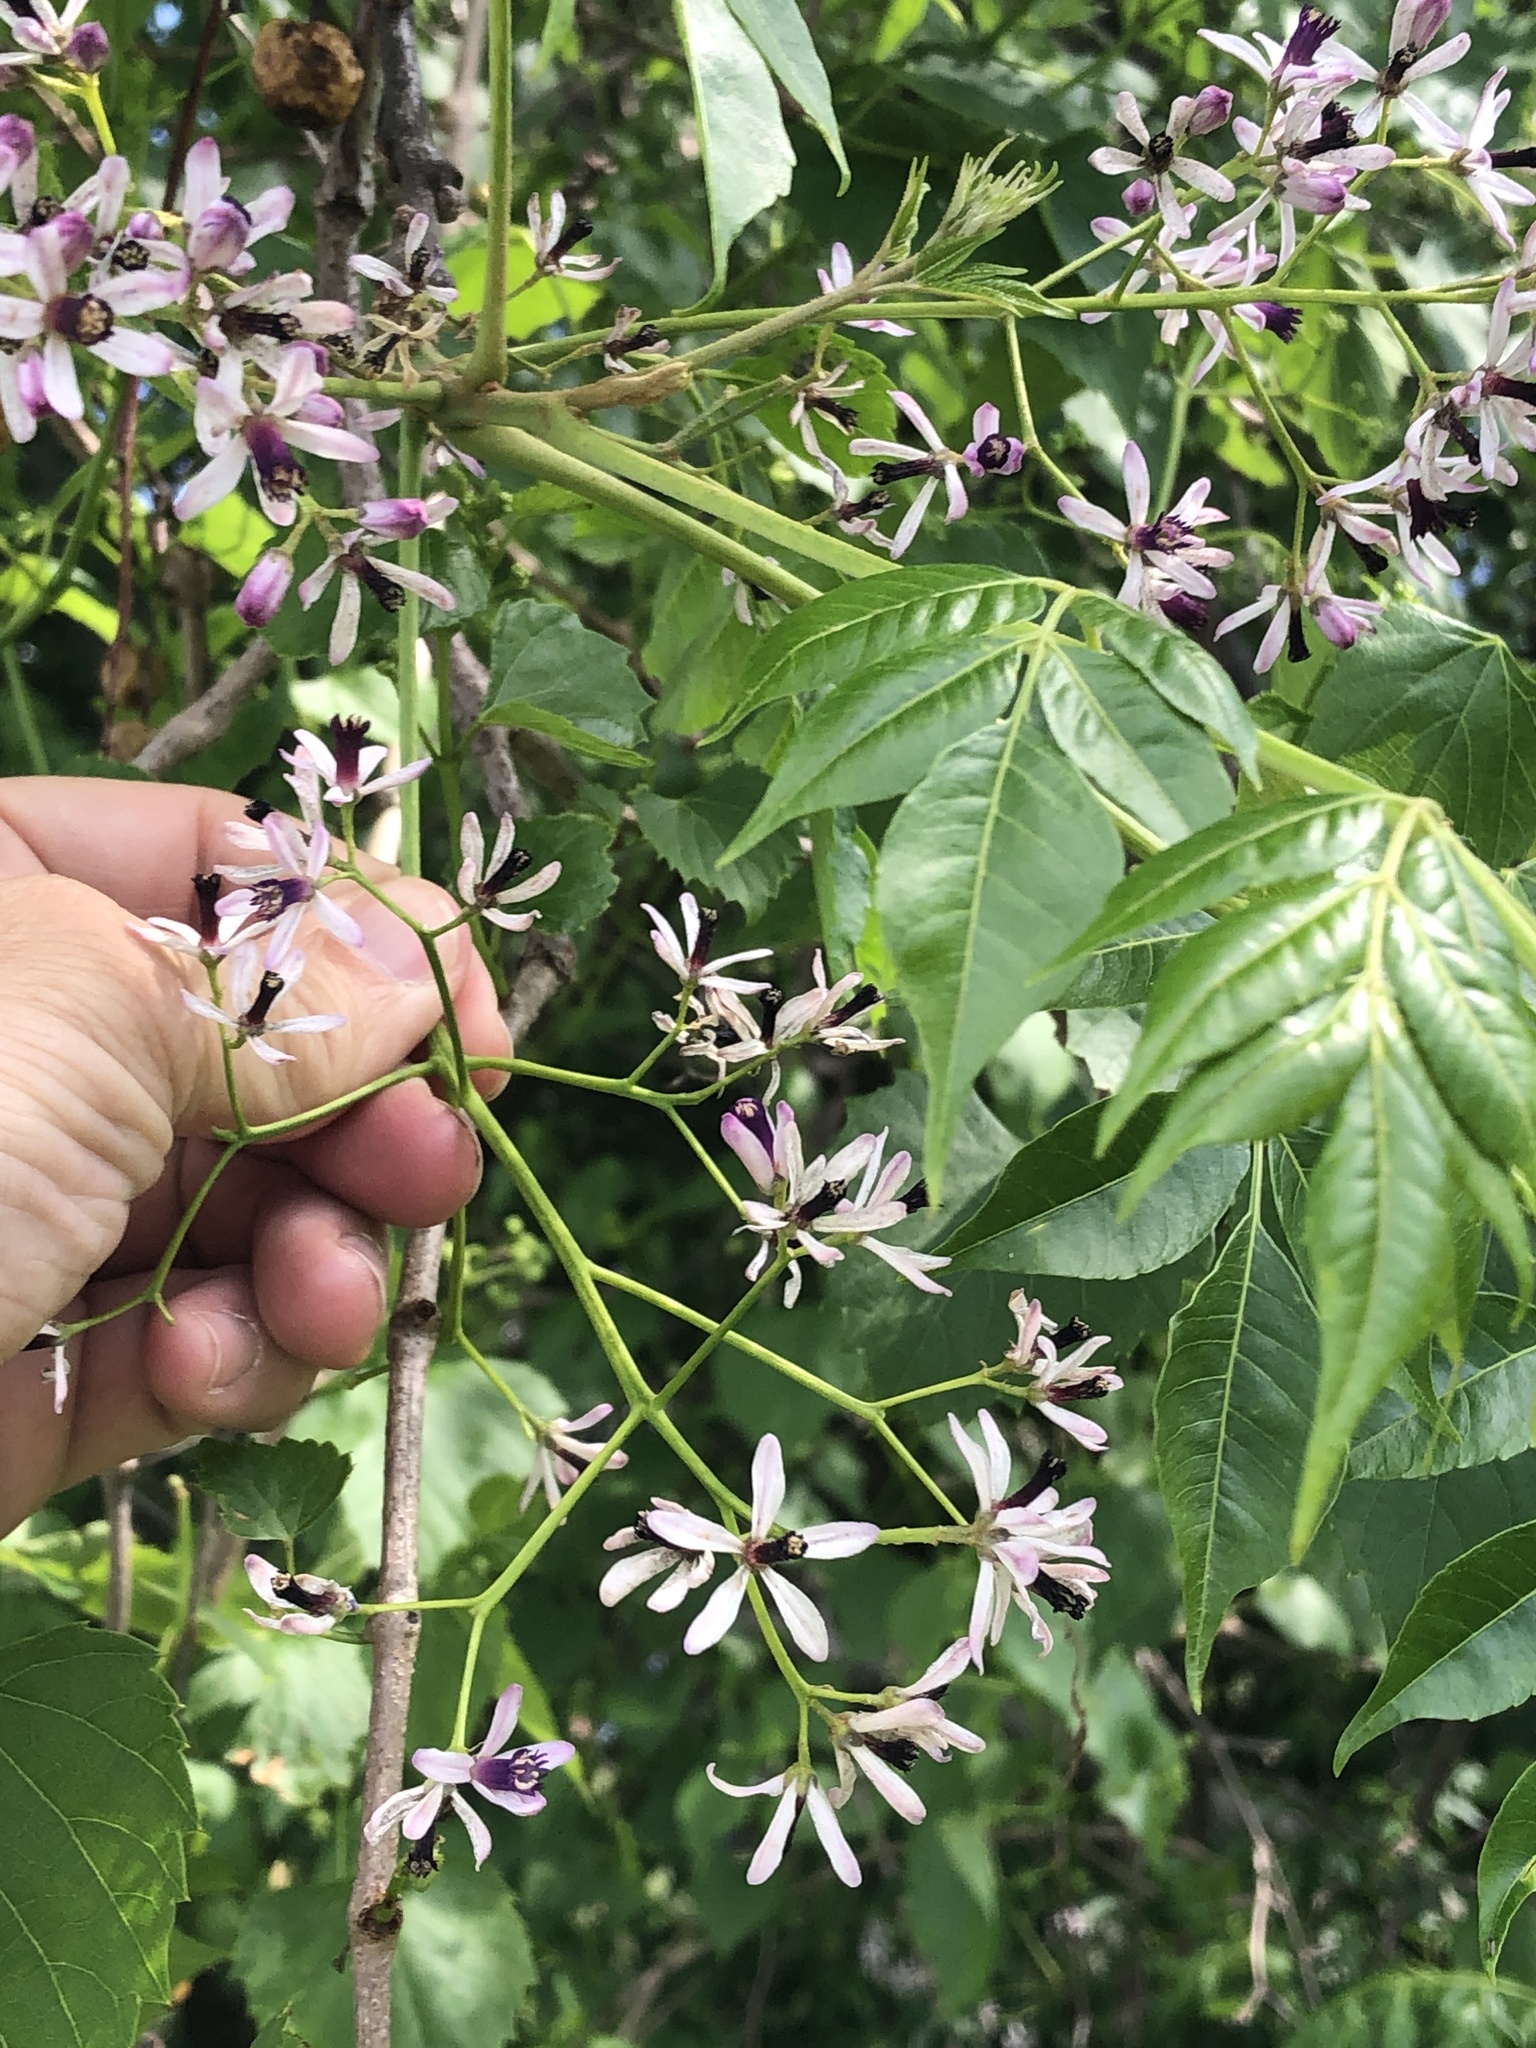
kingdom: Plantae
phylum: Tracheophyta
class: Magnoliopsida
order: Sapindales
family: Meliaceae
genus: Melia
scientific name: Melia azedarach
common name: Chinaberrytree
